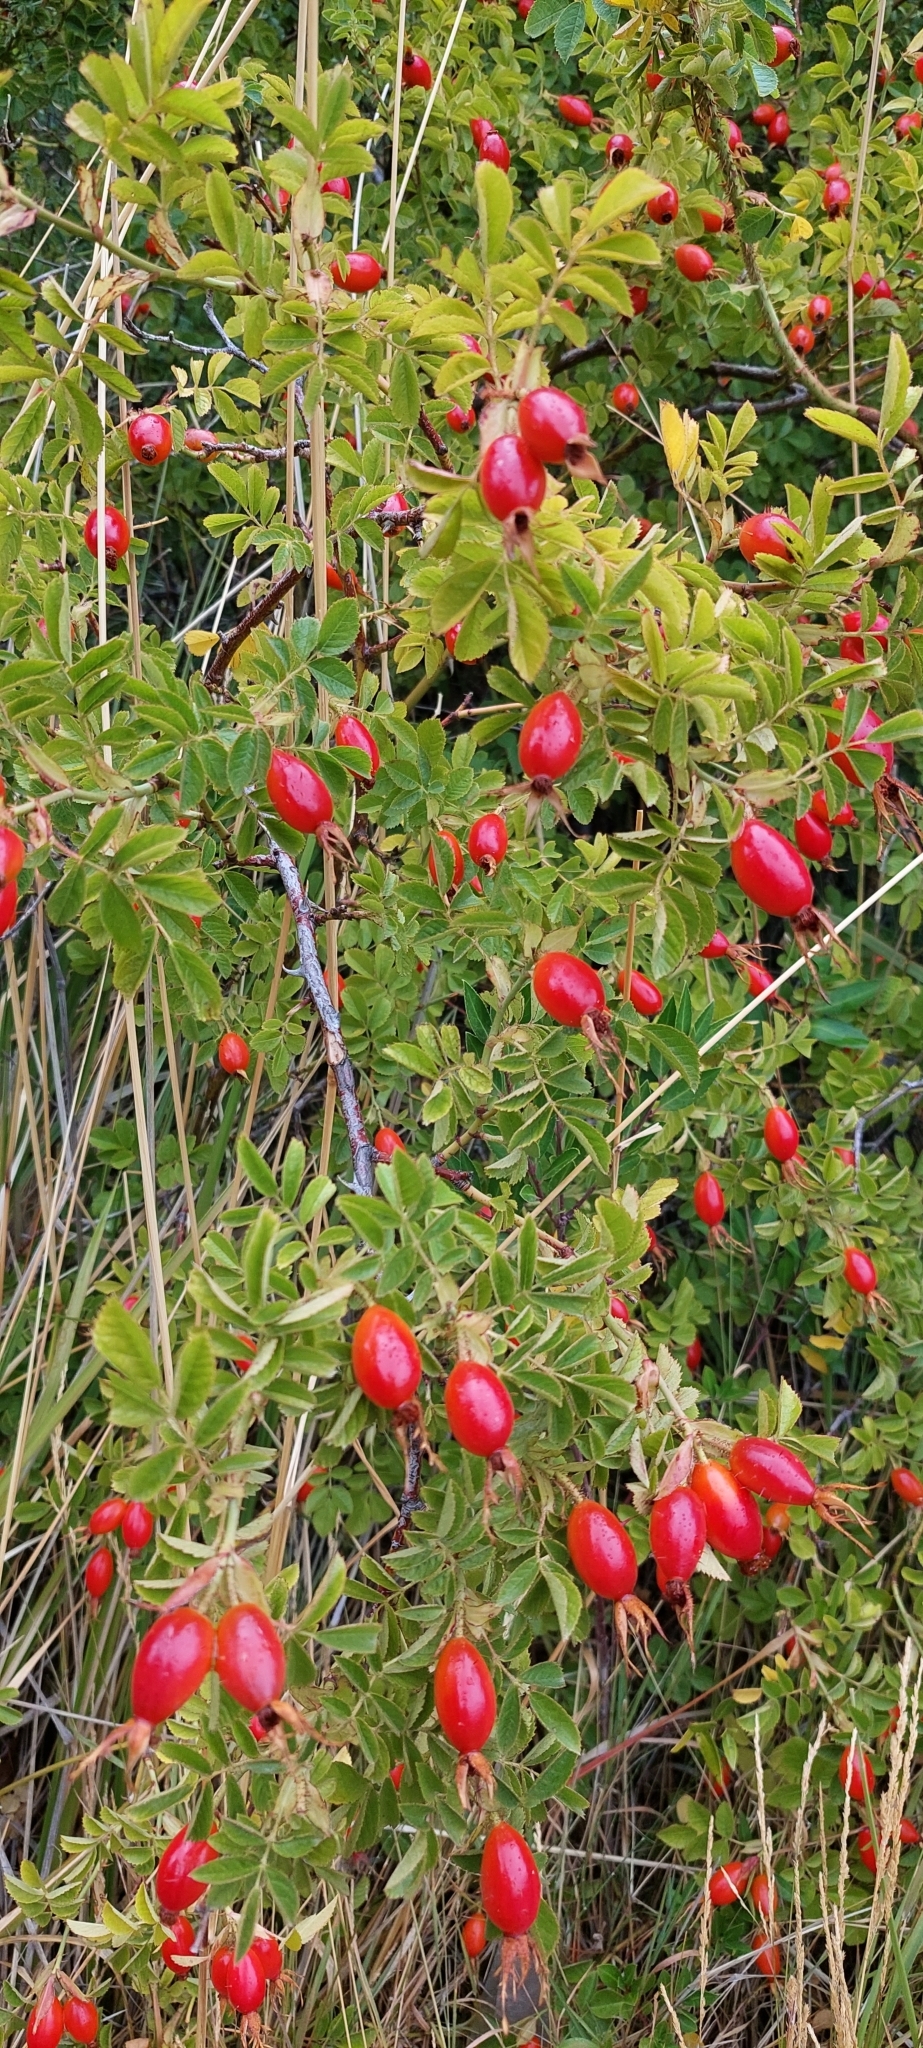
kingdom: Plantae
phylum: Tracheophyta
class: Magnoliopsida
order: Rosales
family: Rosaceae
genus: Rosa
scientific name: Rosa rubiginosa
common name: Sweet-briar
